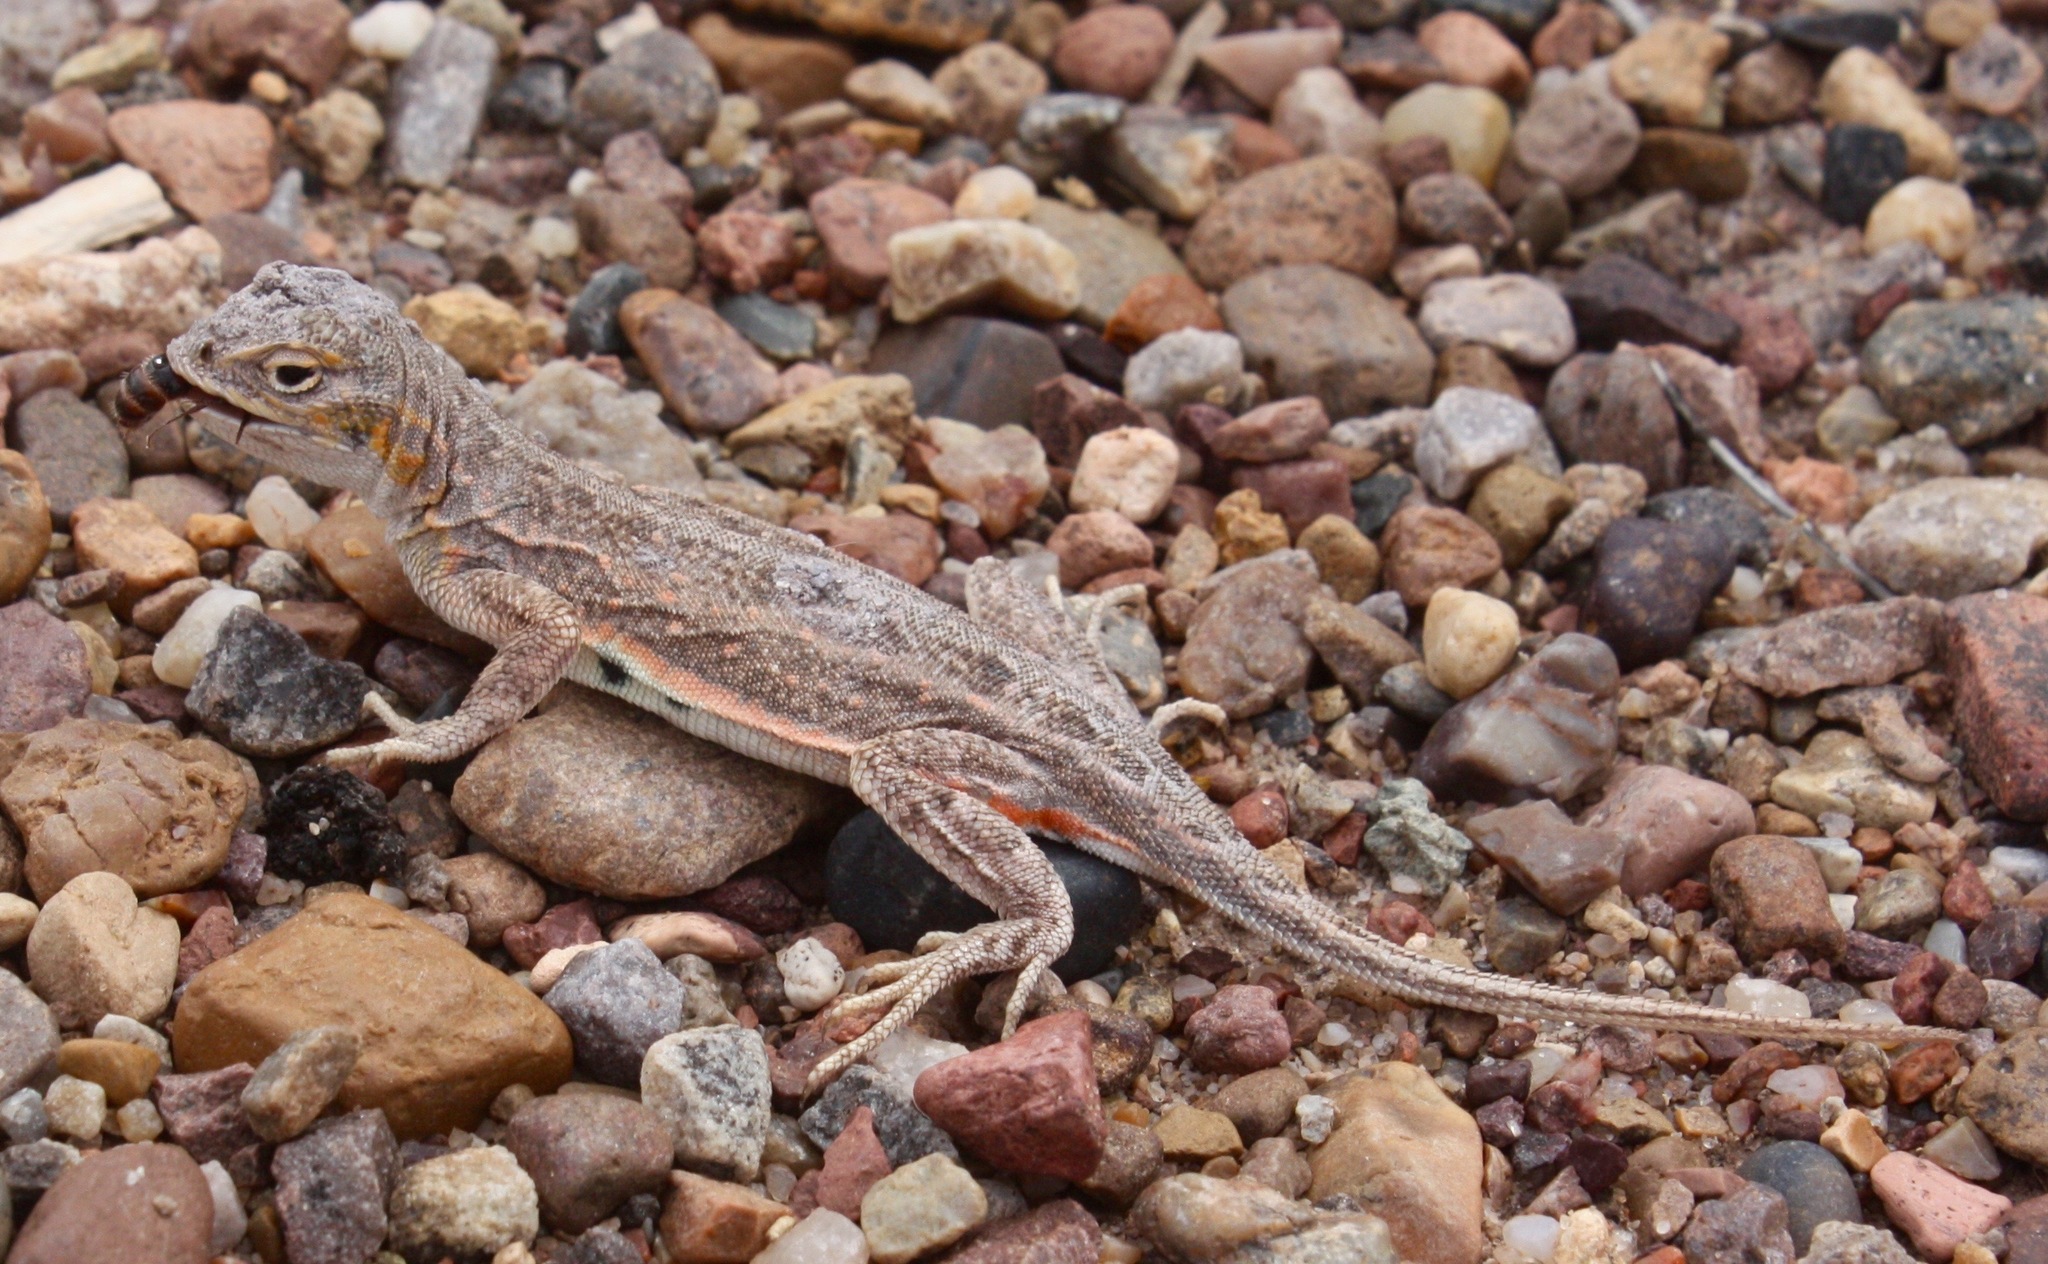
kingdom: Animalia
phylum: Chordata
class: Squamata
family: Phrynosomatidae
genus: Holbrookia
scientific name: Holbrookia maculata
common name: Lesser earless lizard
